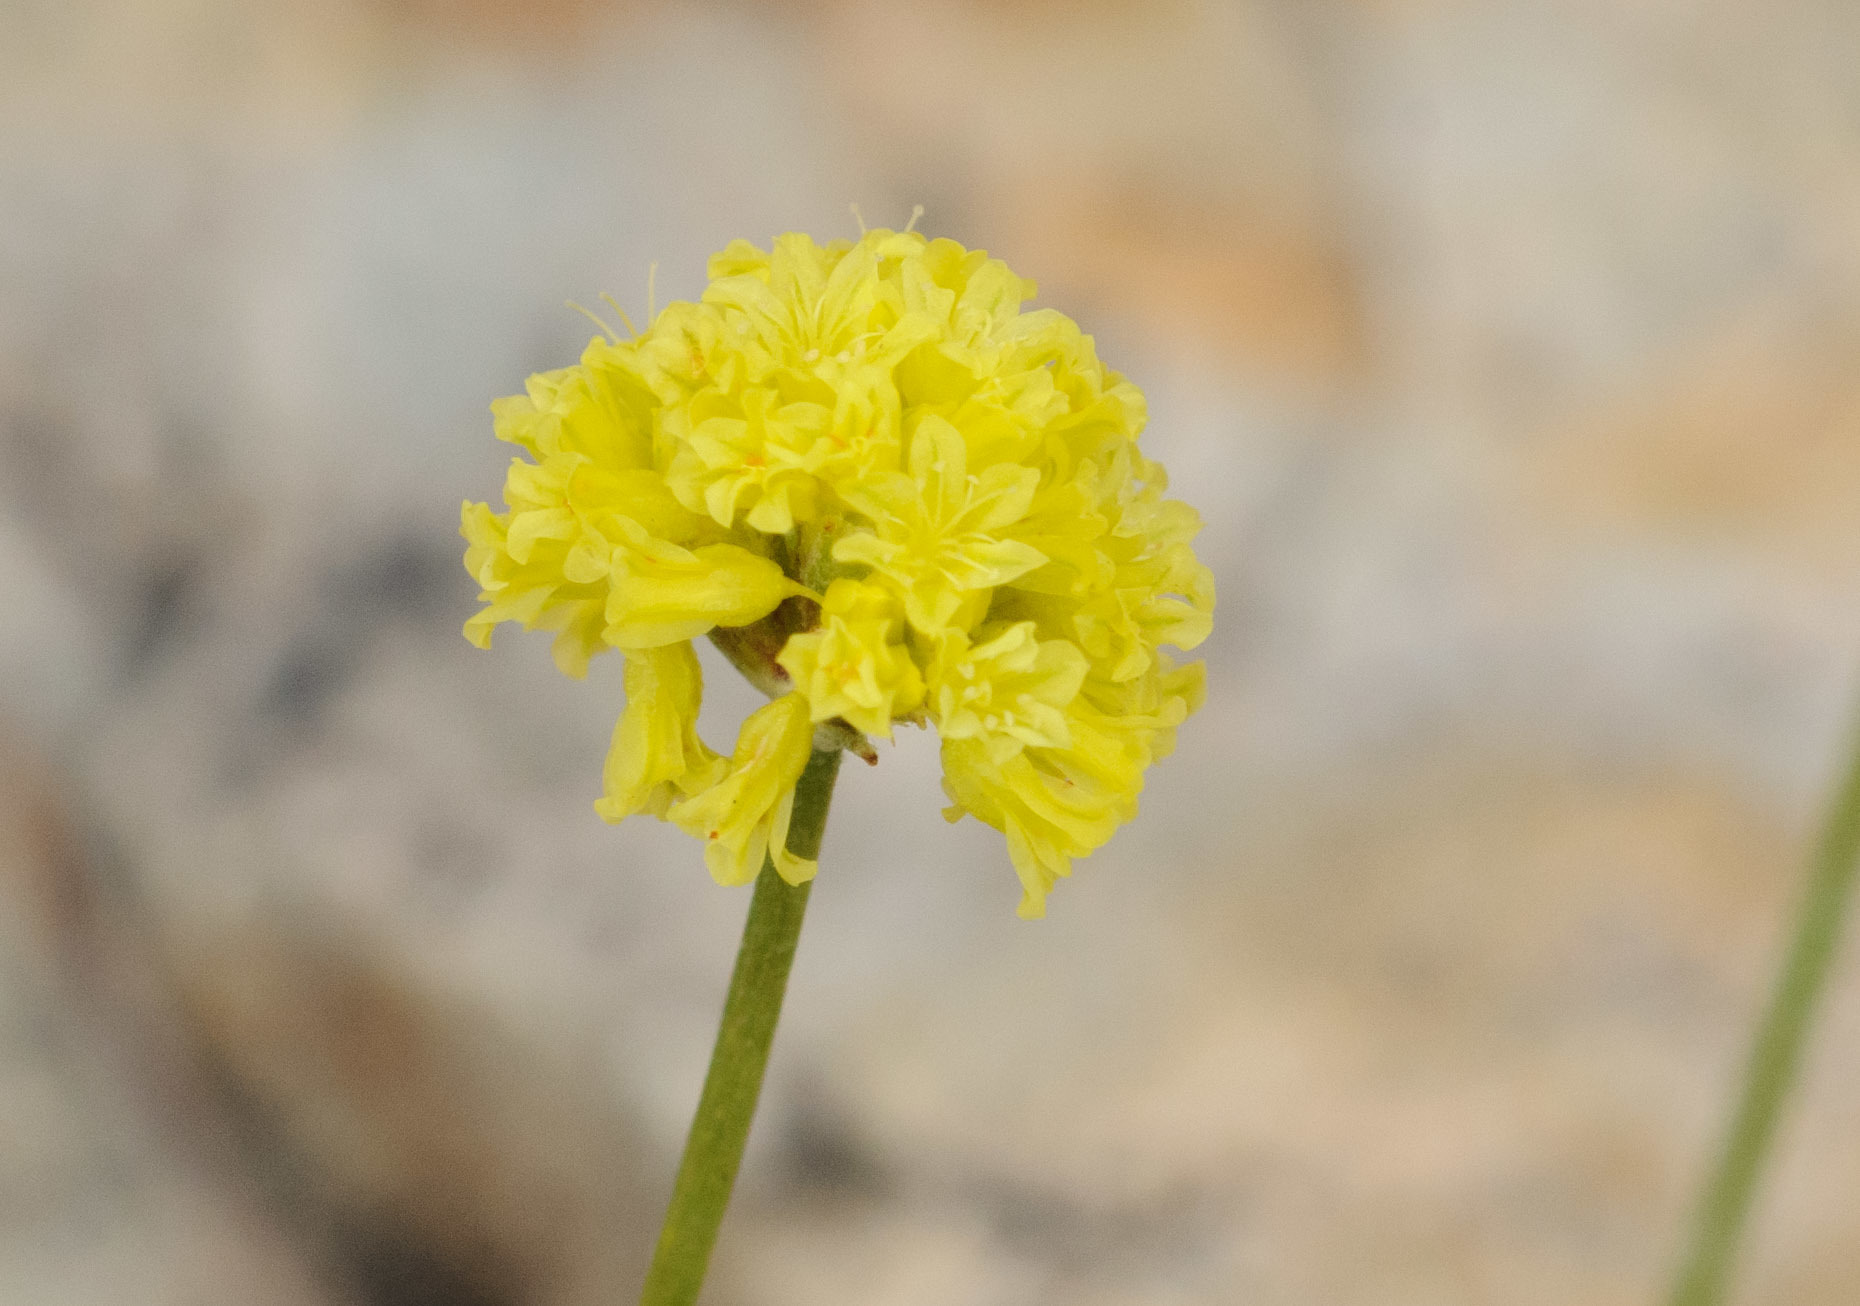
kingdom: Plantae
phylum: Tracheophyta
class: Magnoliopsida
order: Caryophyllales
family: Polygonaceae
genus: Eriogonum
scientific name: Eriogonum brevicaule
